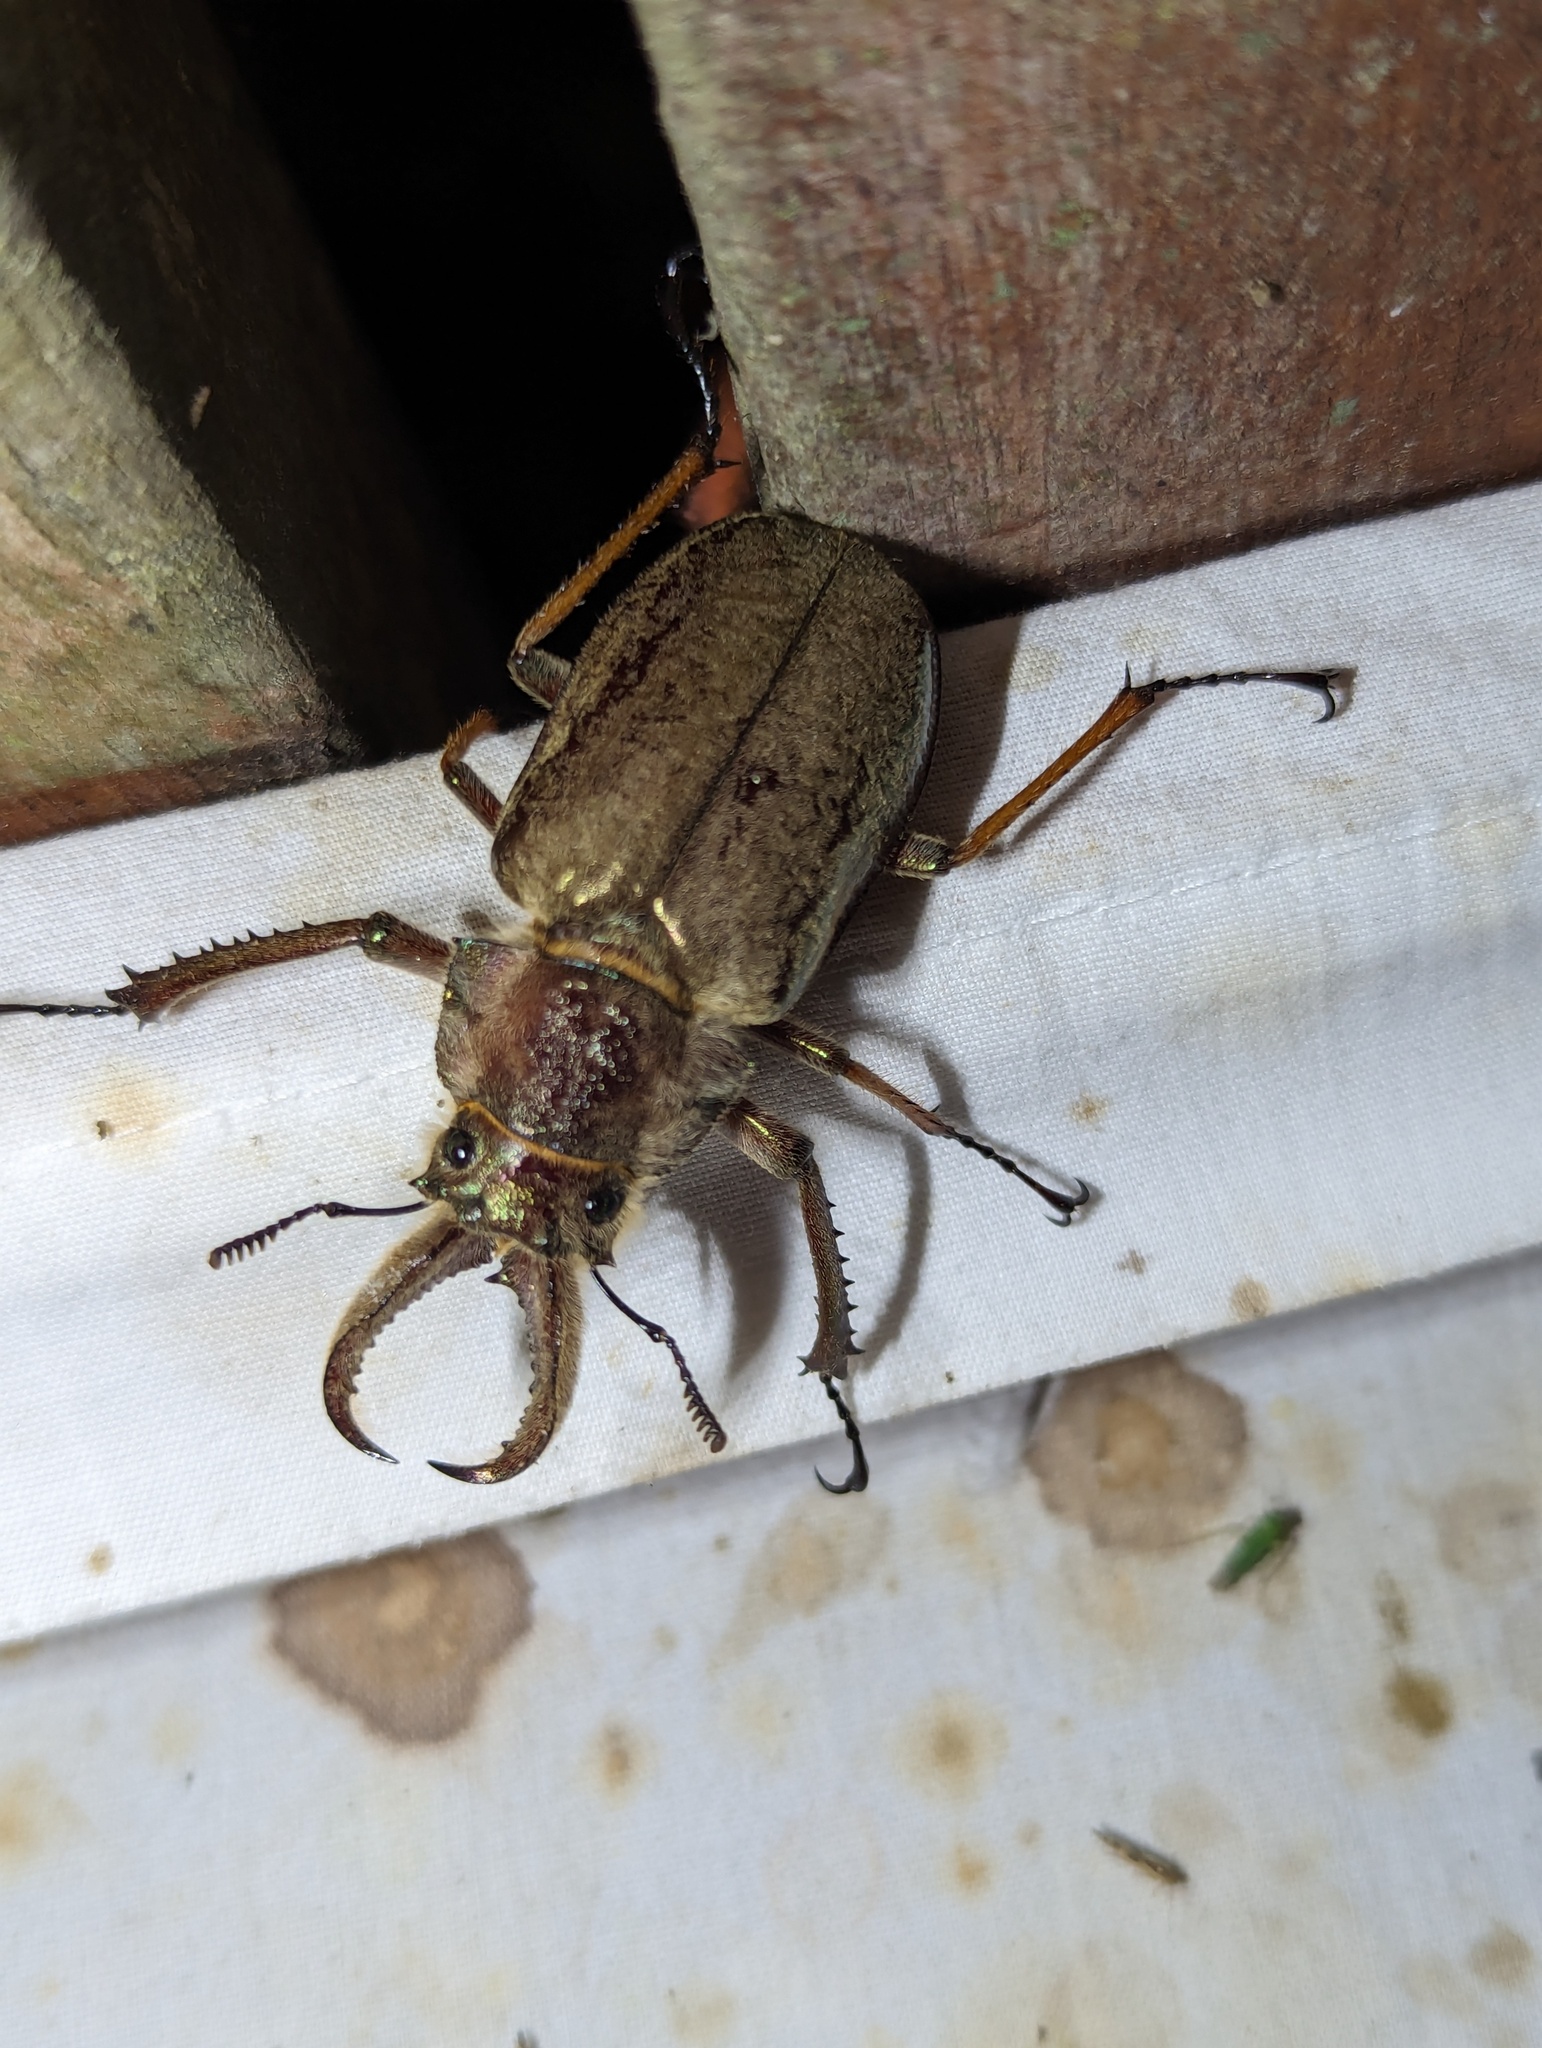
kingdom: Animalia
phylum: Arthropoda
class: Insecta
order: Coleoptera
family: Lucanidae
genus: Sphaenognathus
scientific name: Sphaenognathus feisthamelii
